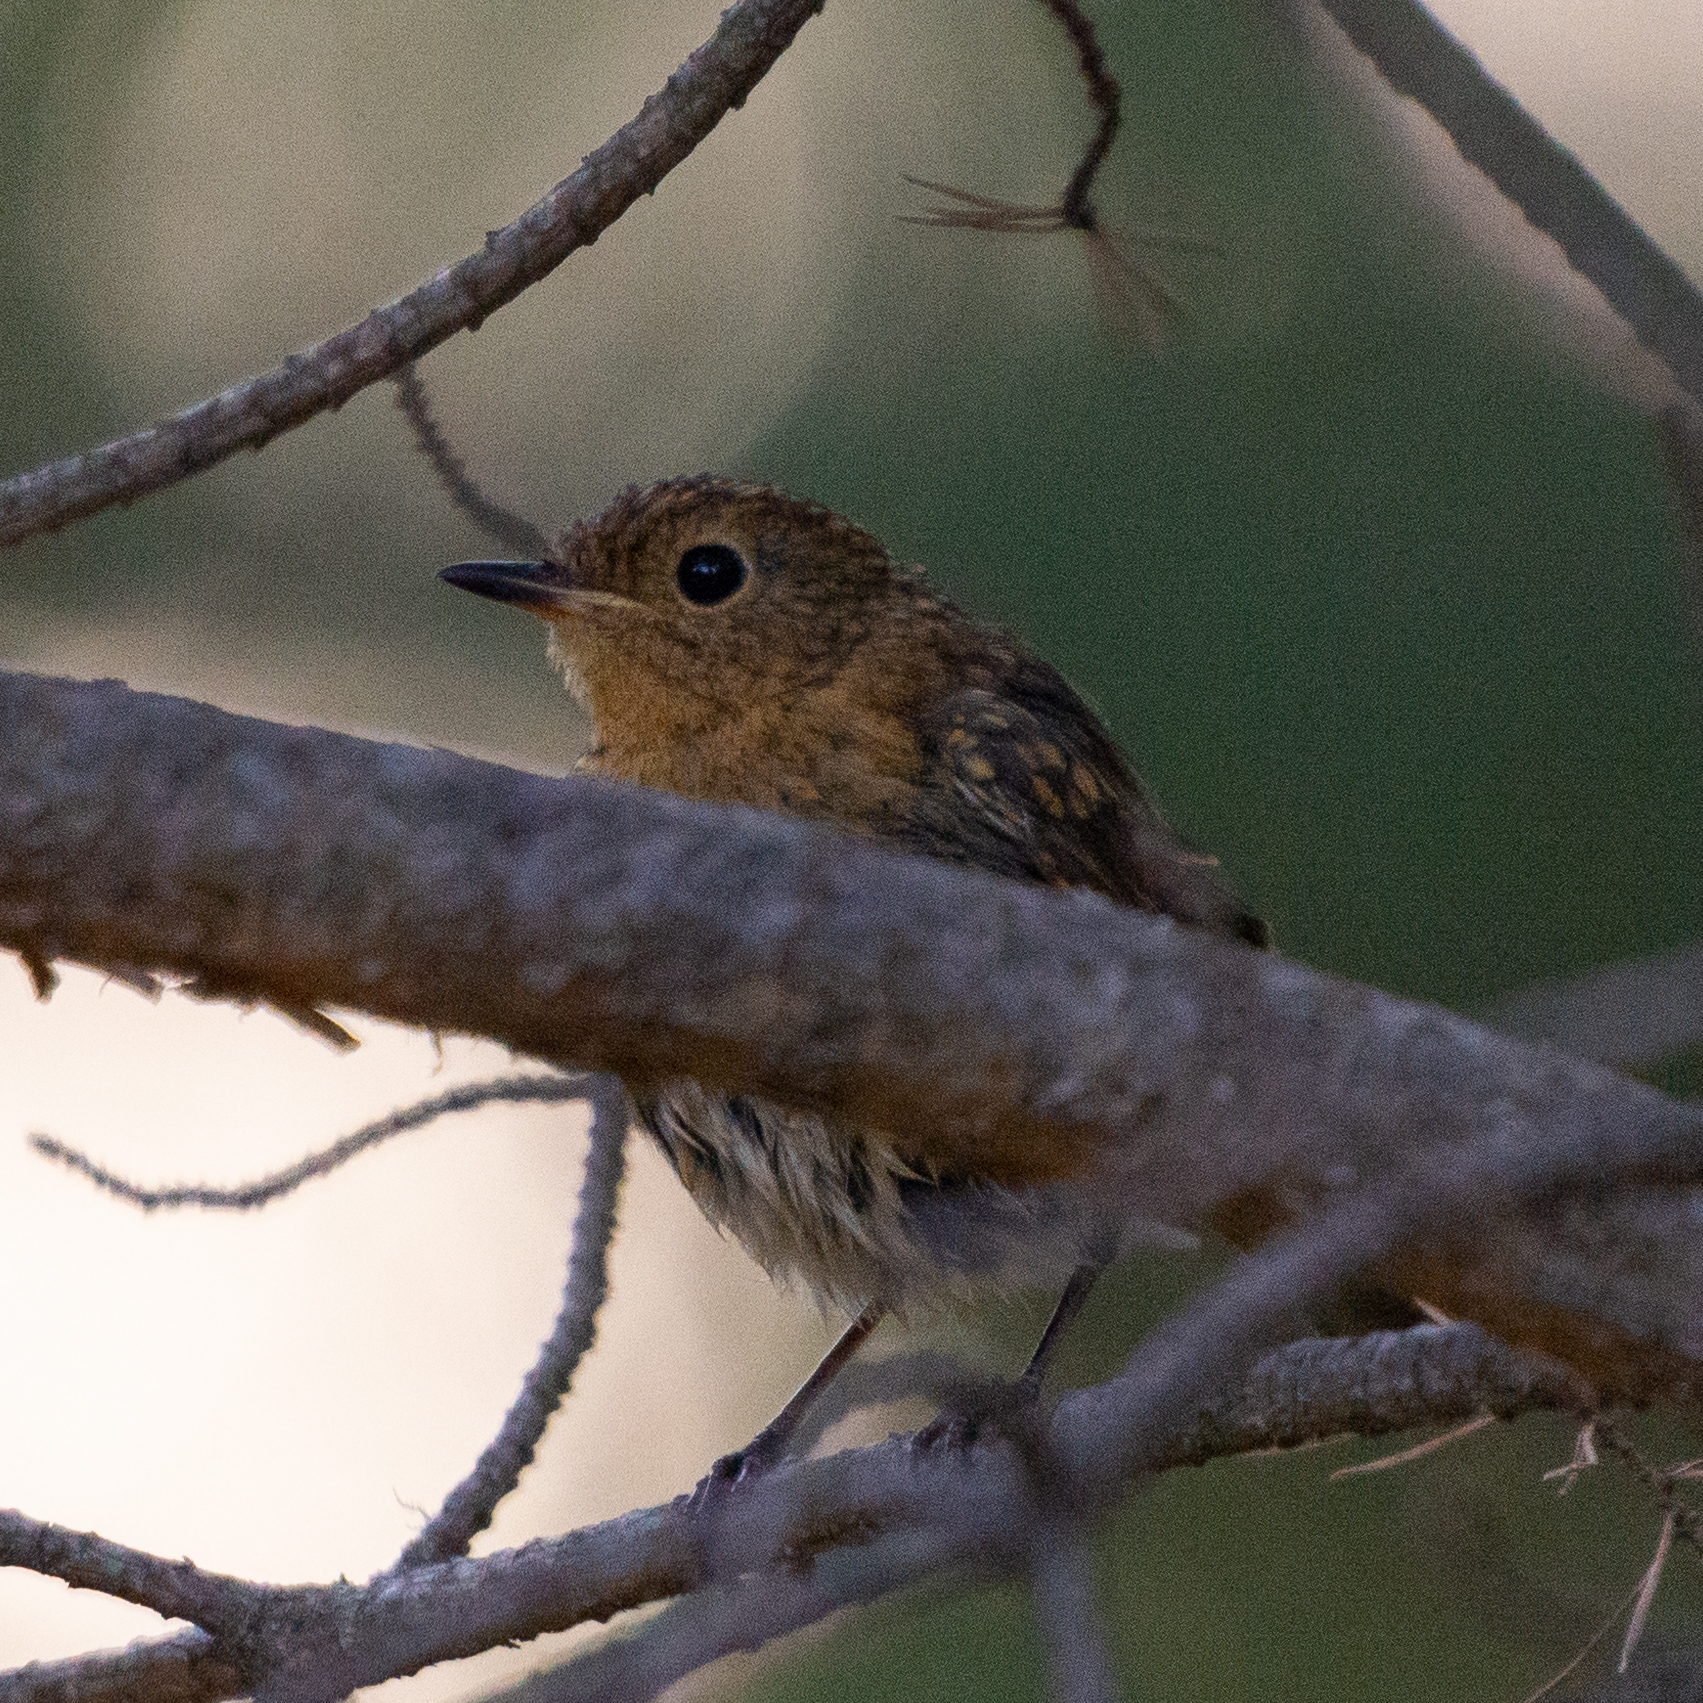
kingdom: Animalia
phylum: Chordata
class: Aves
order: Passeriformes
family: Muscicapidae
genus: Erithacus
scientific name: Erithacus rubecula
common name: European robin
